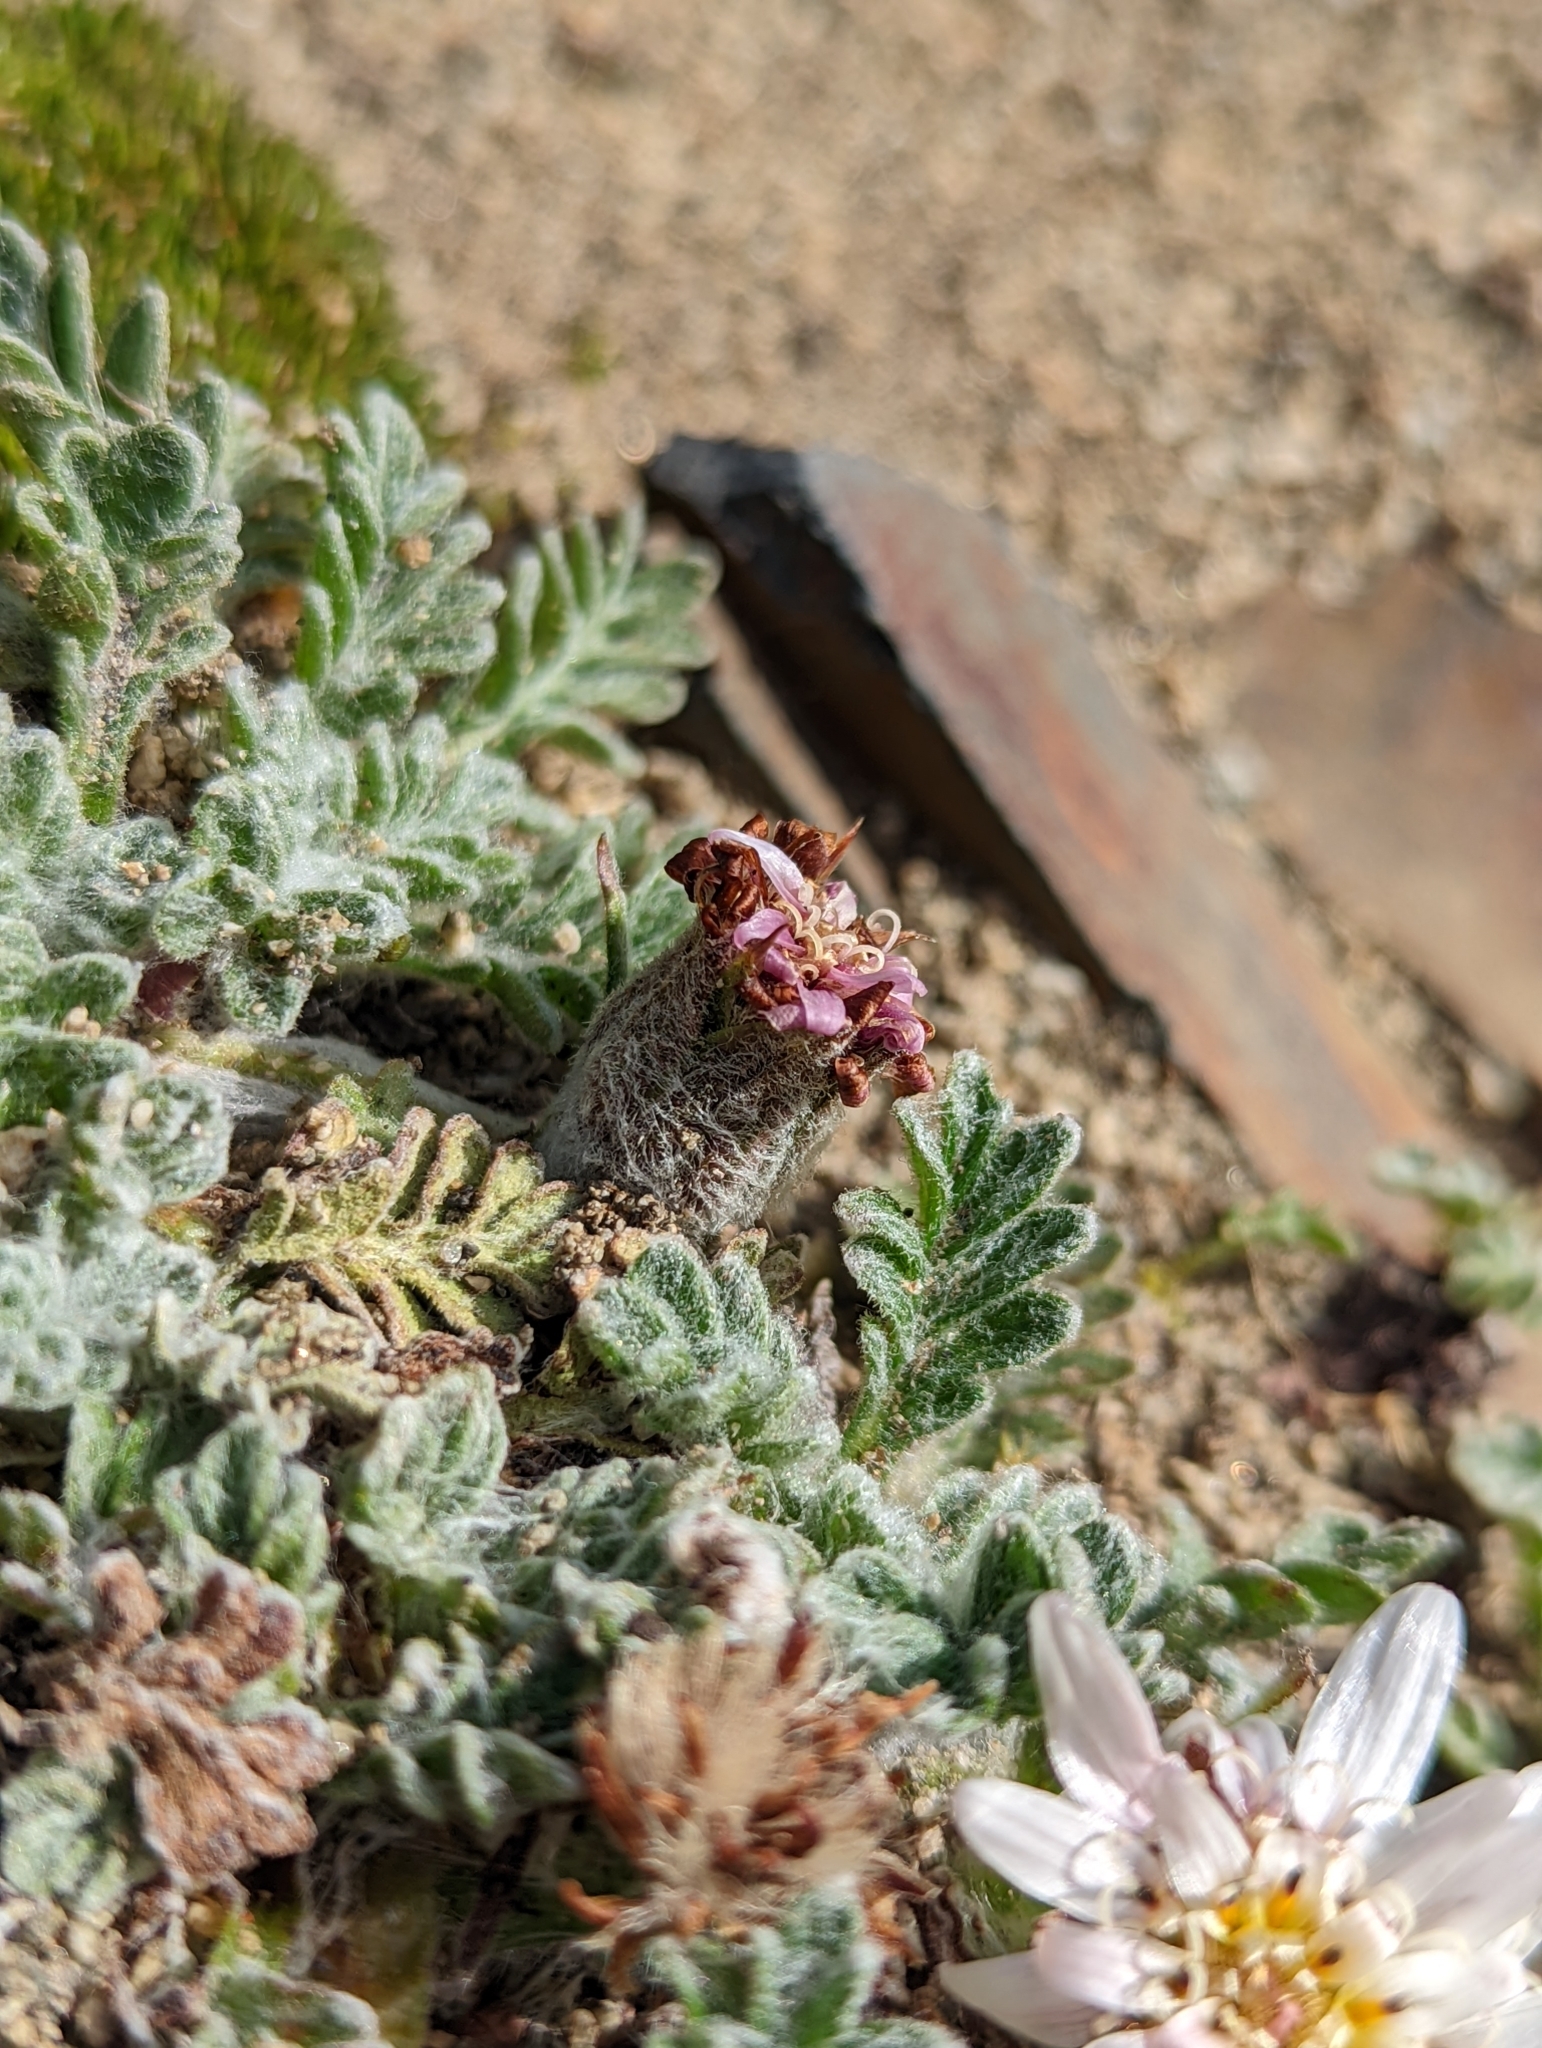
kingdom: Plantae
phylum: Tracheophyta
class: Magnoliopsida
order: Asterales
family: Asteraceae
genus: Leucheria
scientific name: Leucheria leontopodioides
